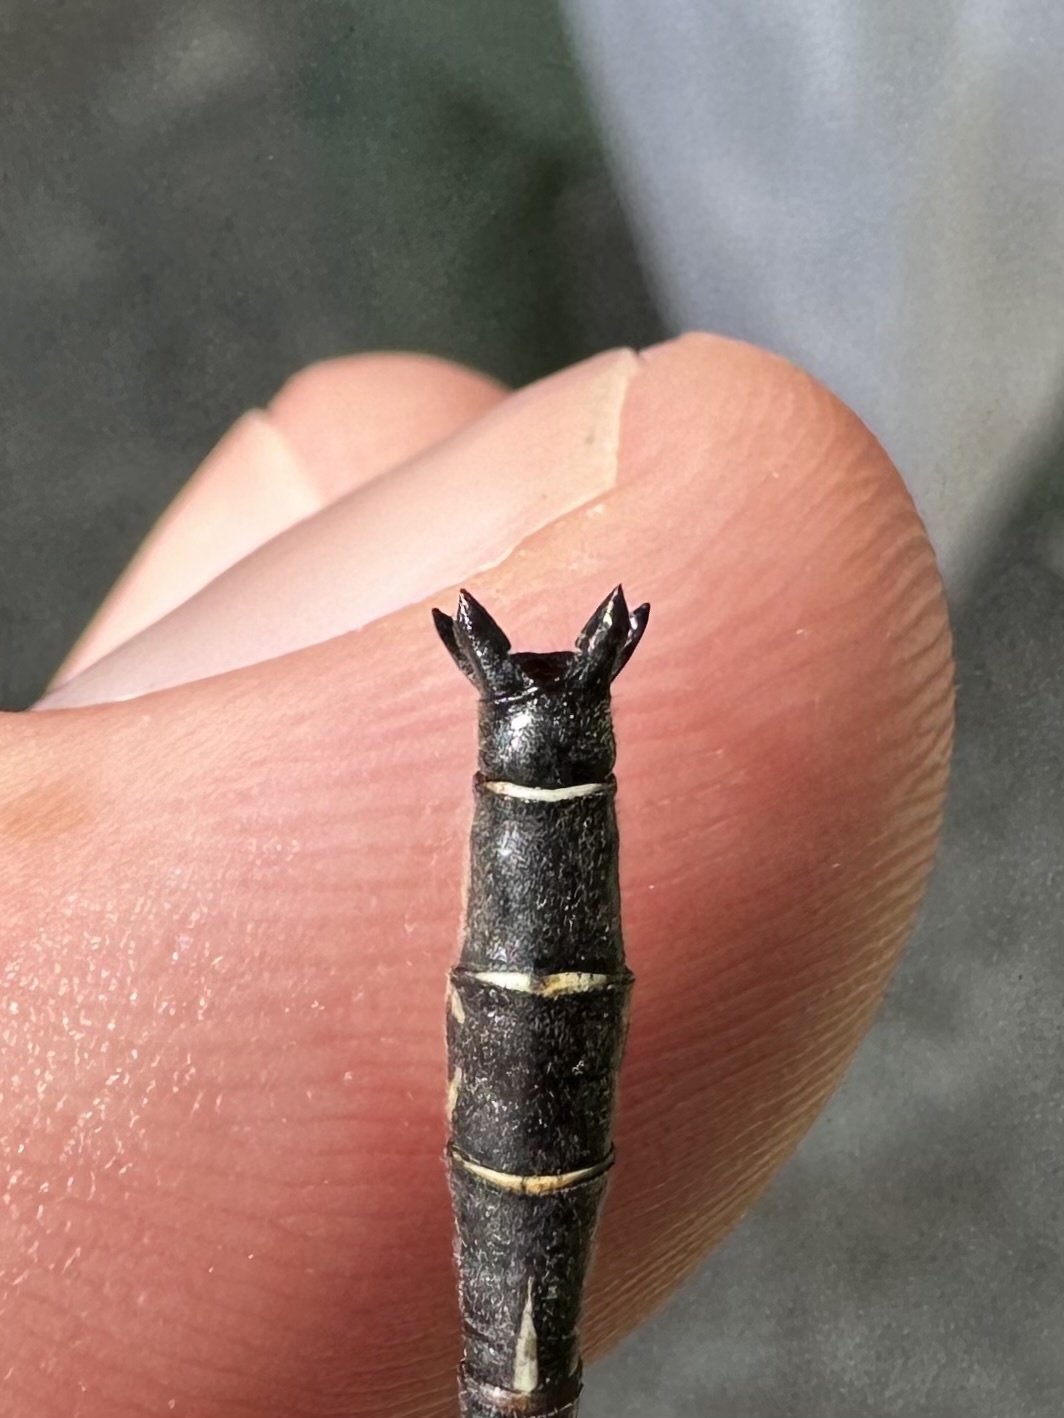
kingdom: Animalia
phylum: Arthropoda
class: Insecta
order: Odonata
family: Gomphidae
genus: Phanogomphus
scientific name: Phanogomphus descriptus
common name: Harpoon clubtail
